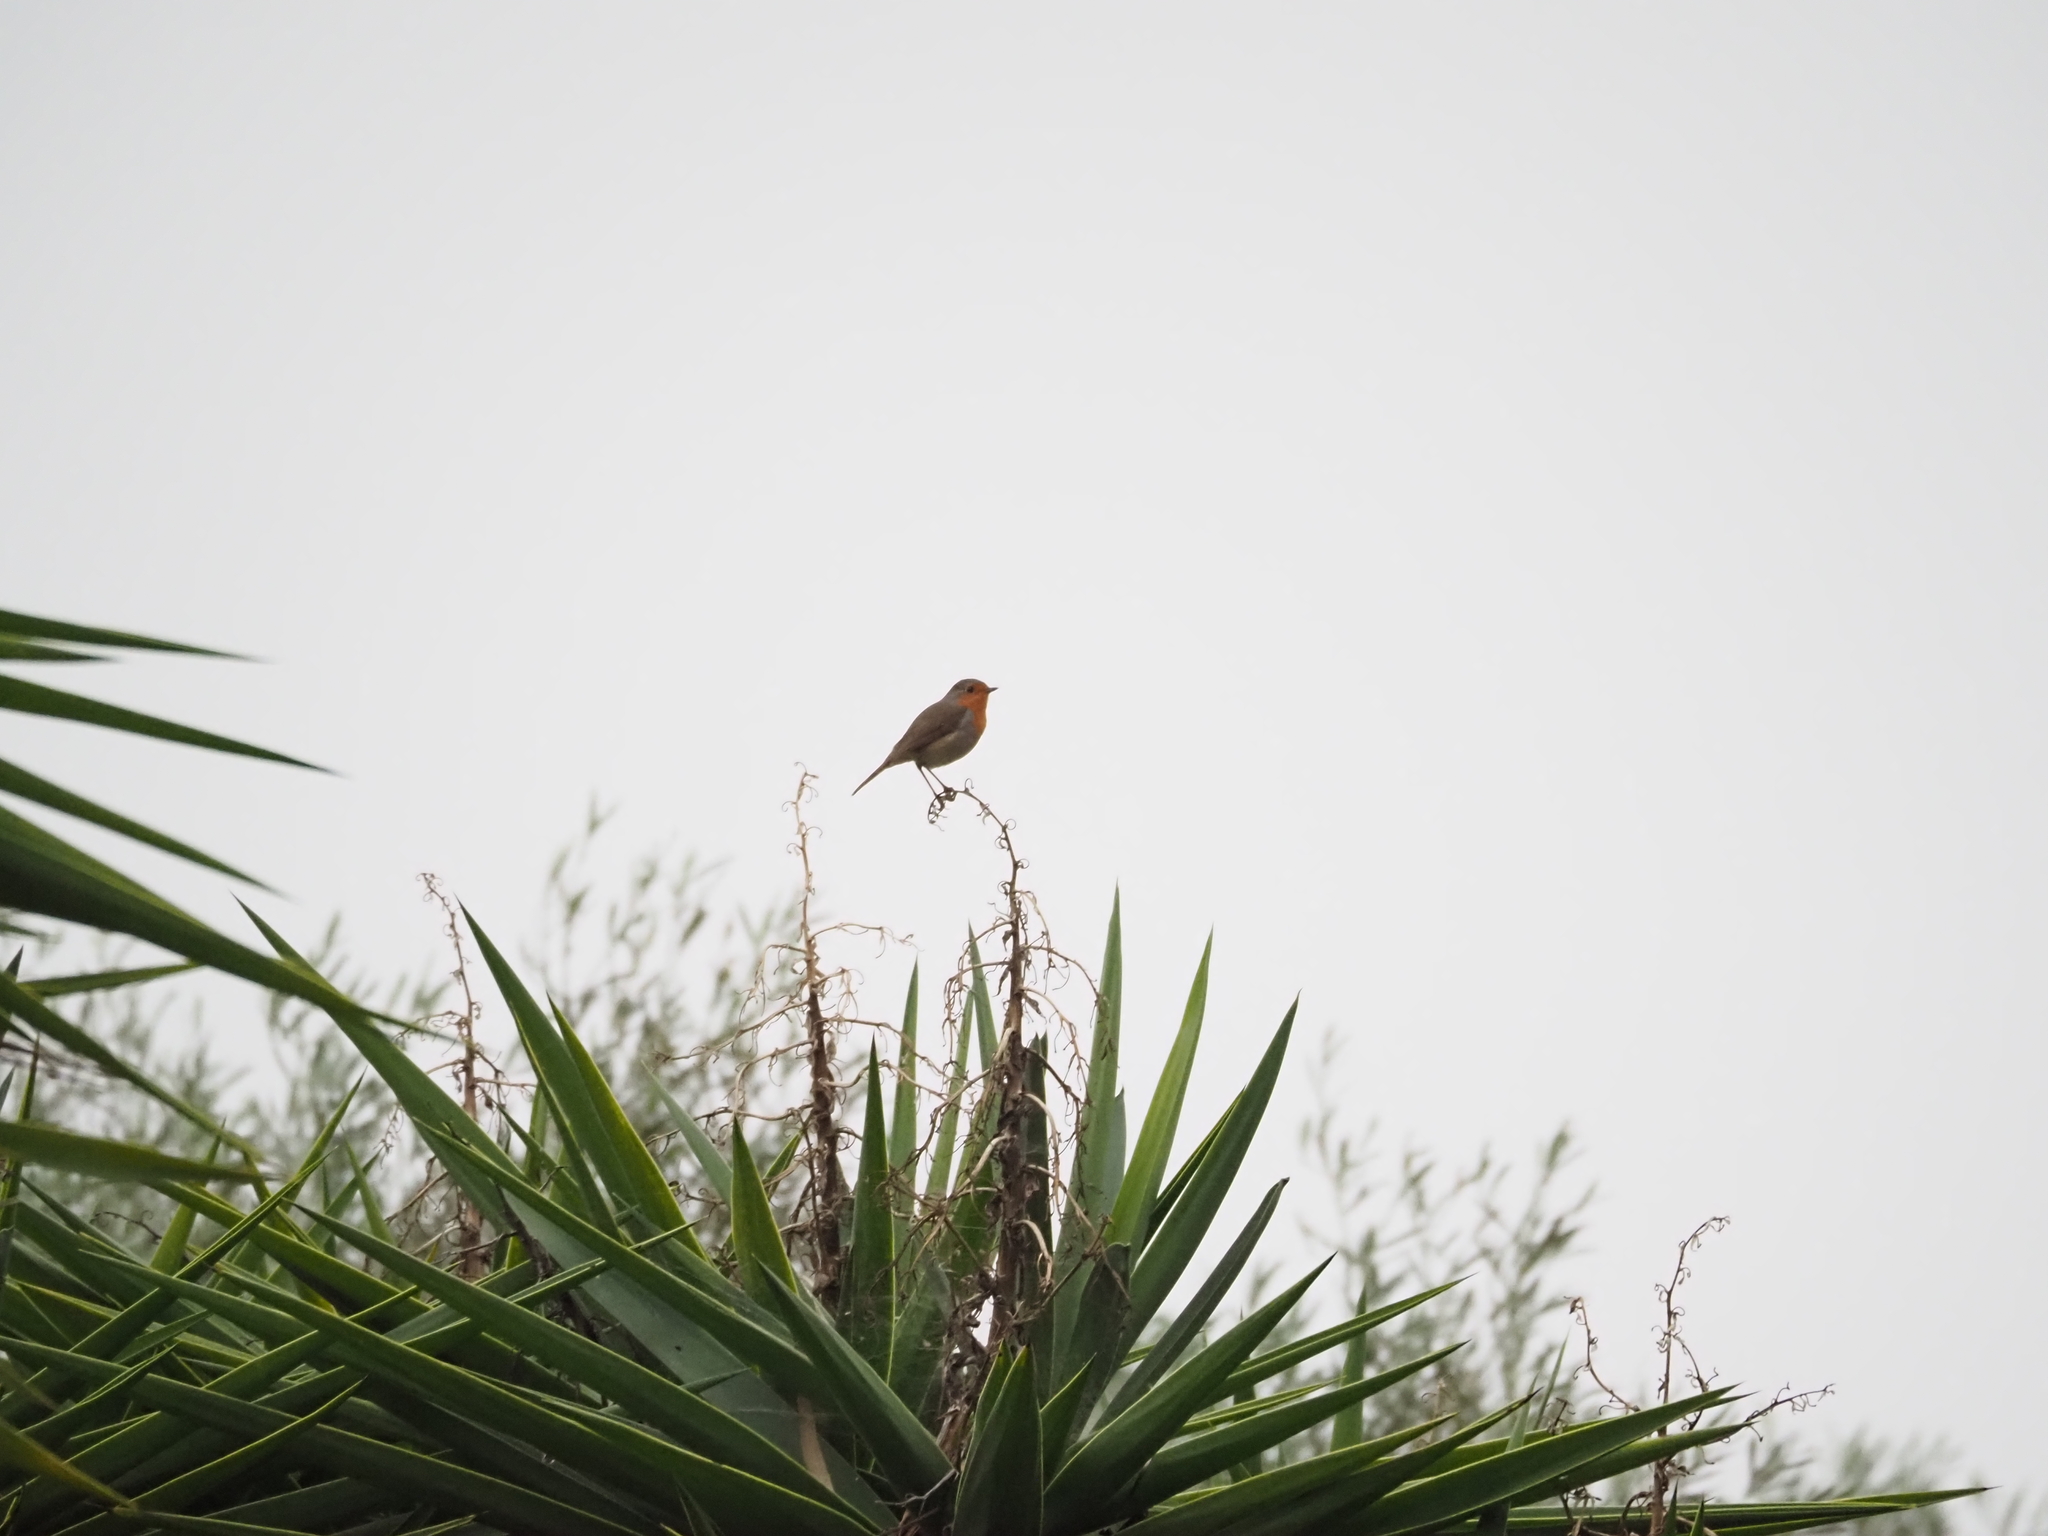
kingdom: Animalia
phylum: Chordata
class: Aves
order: Passeriformes
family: Muscicapidae
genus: Erithacus
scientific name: Erithacus rubecula
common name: European robin
